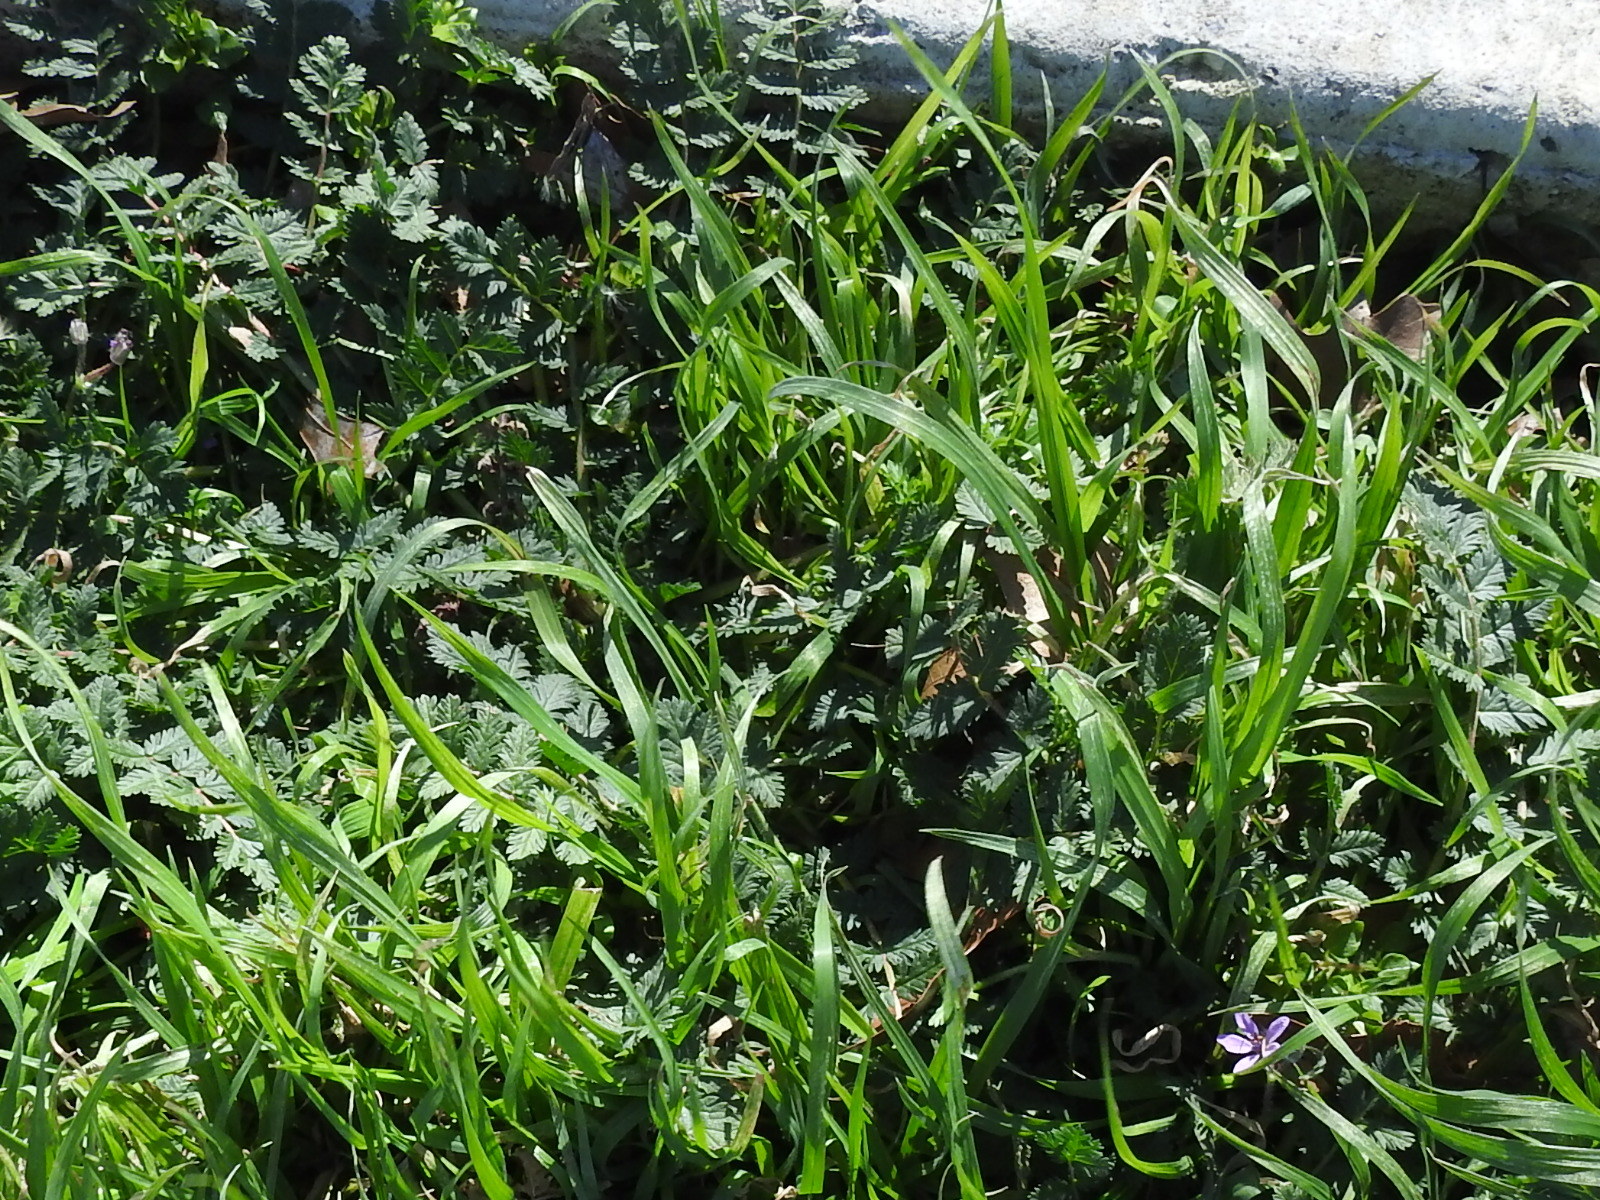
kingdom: Plantae
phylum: Tracheophyta
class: Magnoliopsida
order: Geraniales
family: Geraniaceae
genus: Erodium
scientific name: Erodium cicutarium
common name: Common stork's-bill
